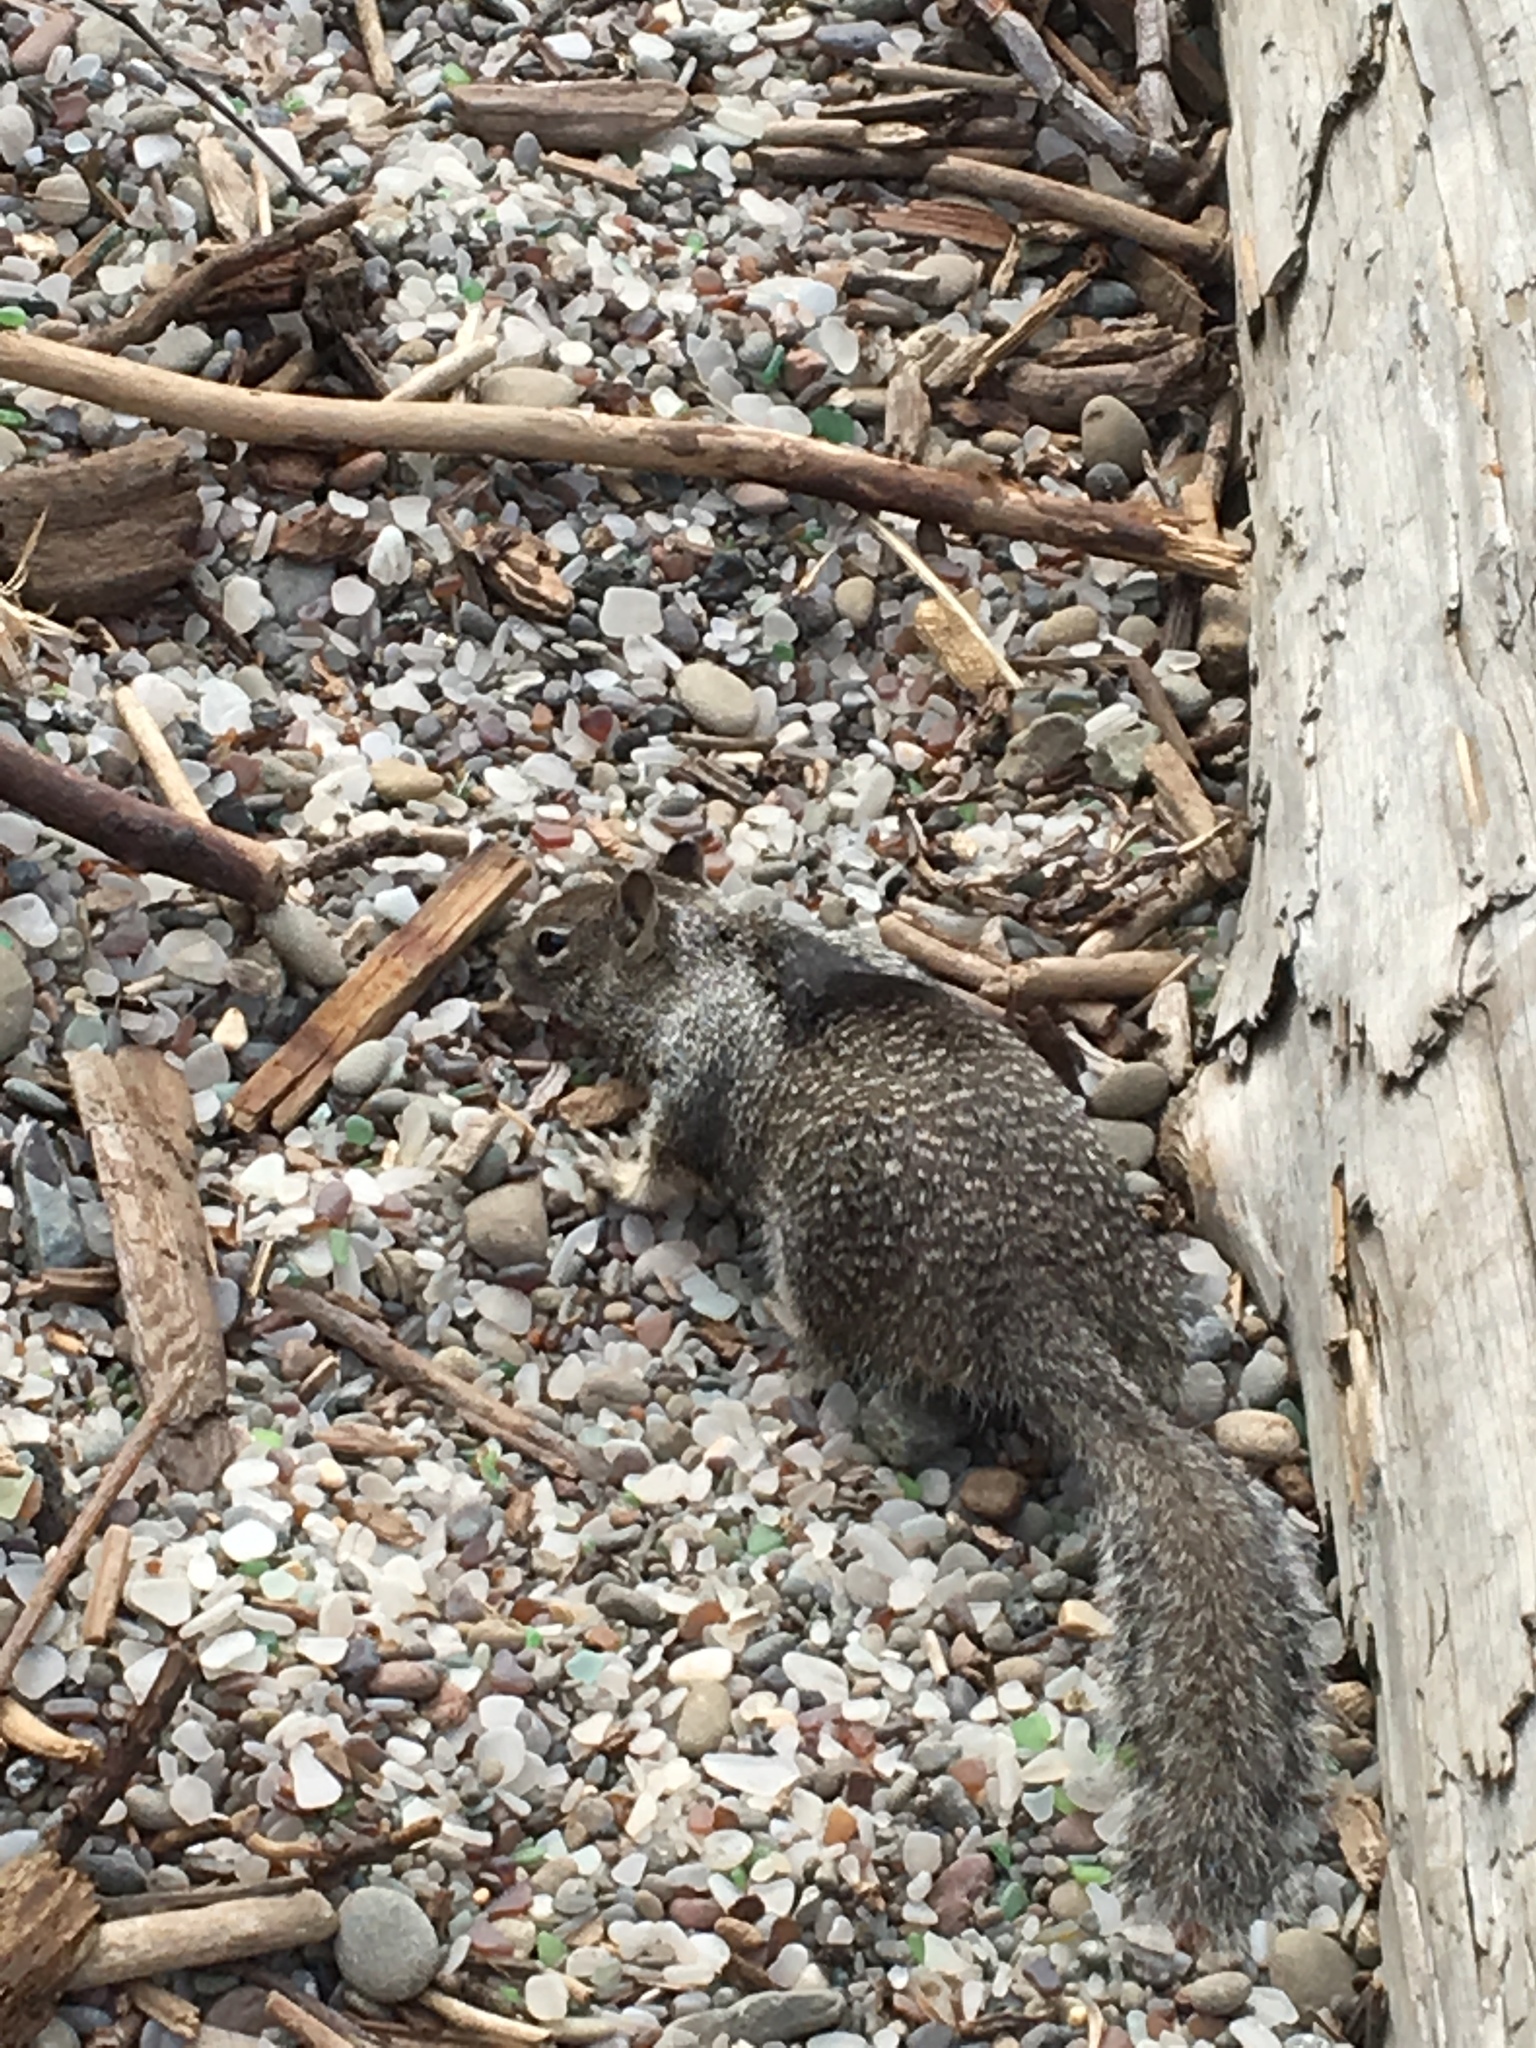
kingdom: Animalia
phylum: Chordata
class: Mammalia
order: Rodentia
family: Sciuridae
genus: Otospermophilus
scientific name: Otospermophilus beecheyi
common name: California ground squirrel
